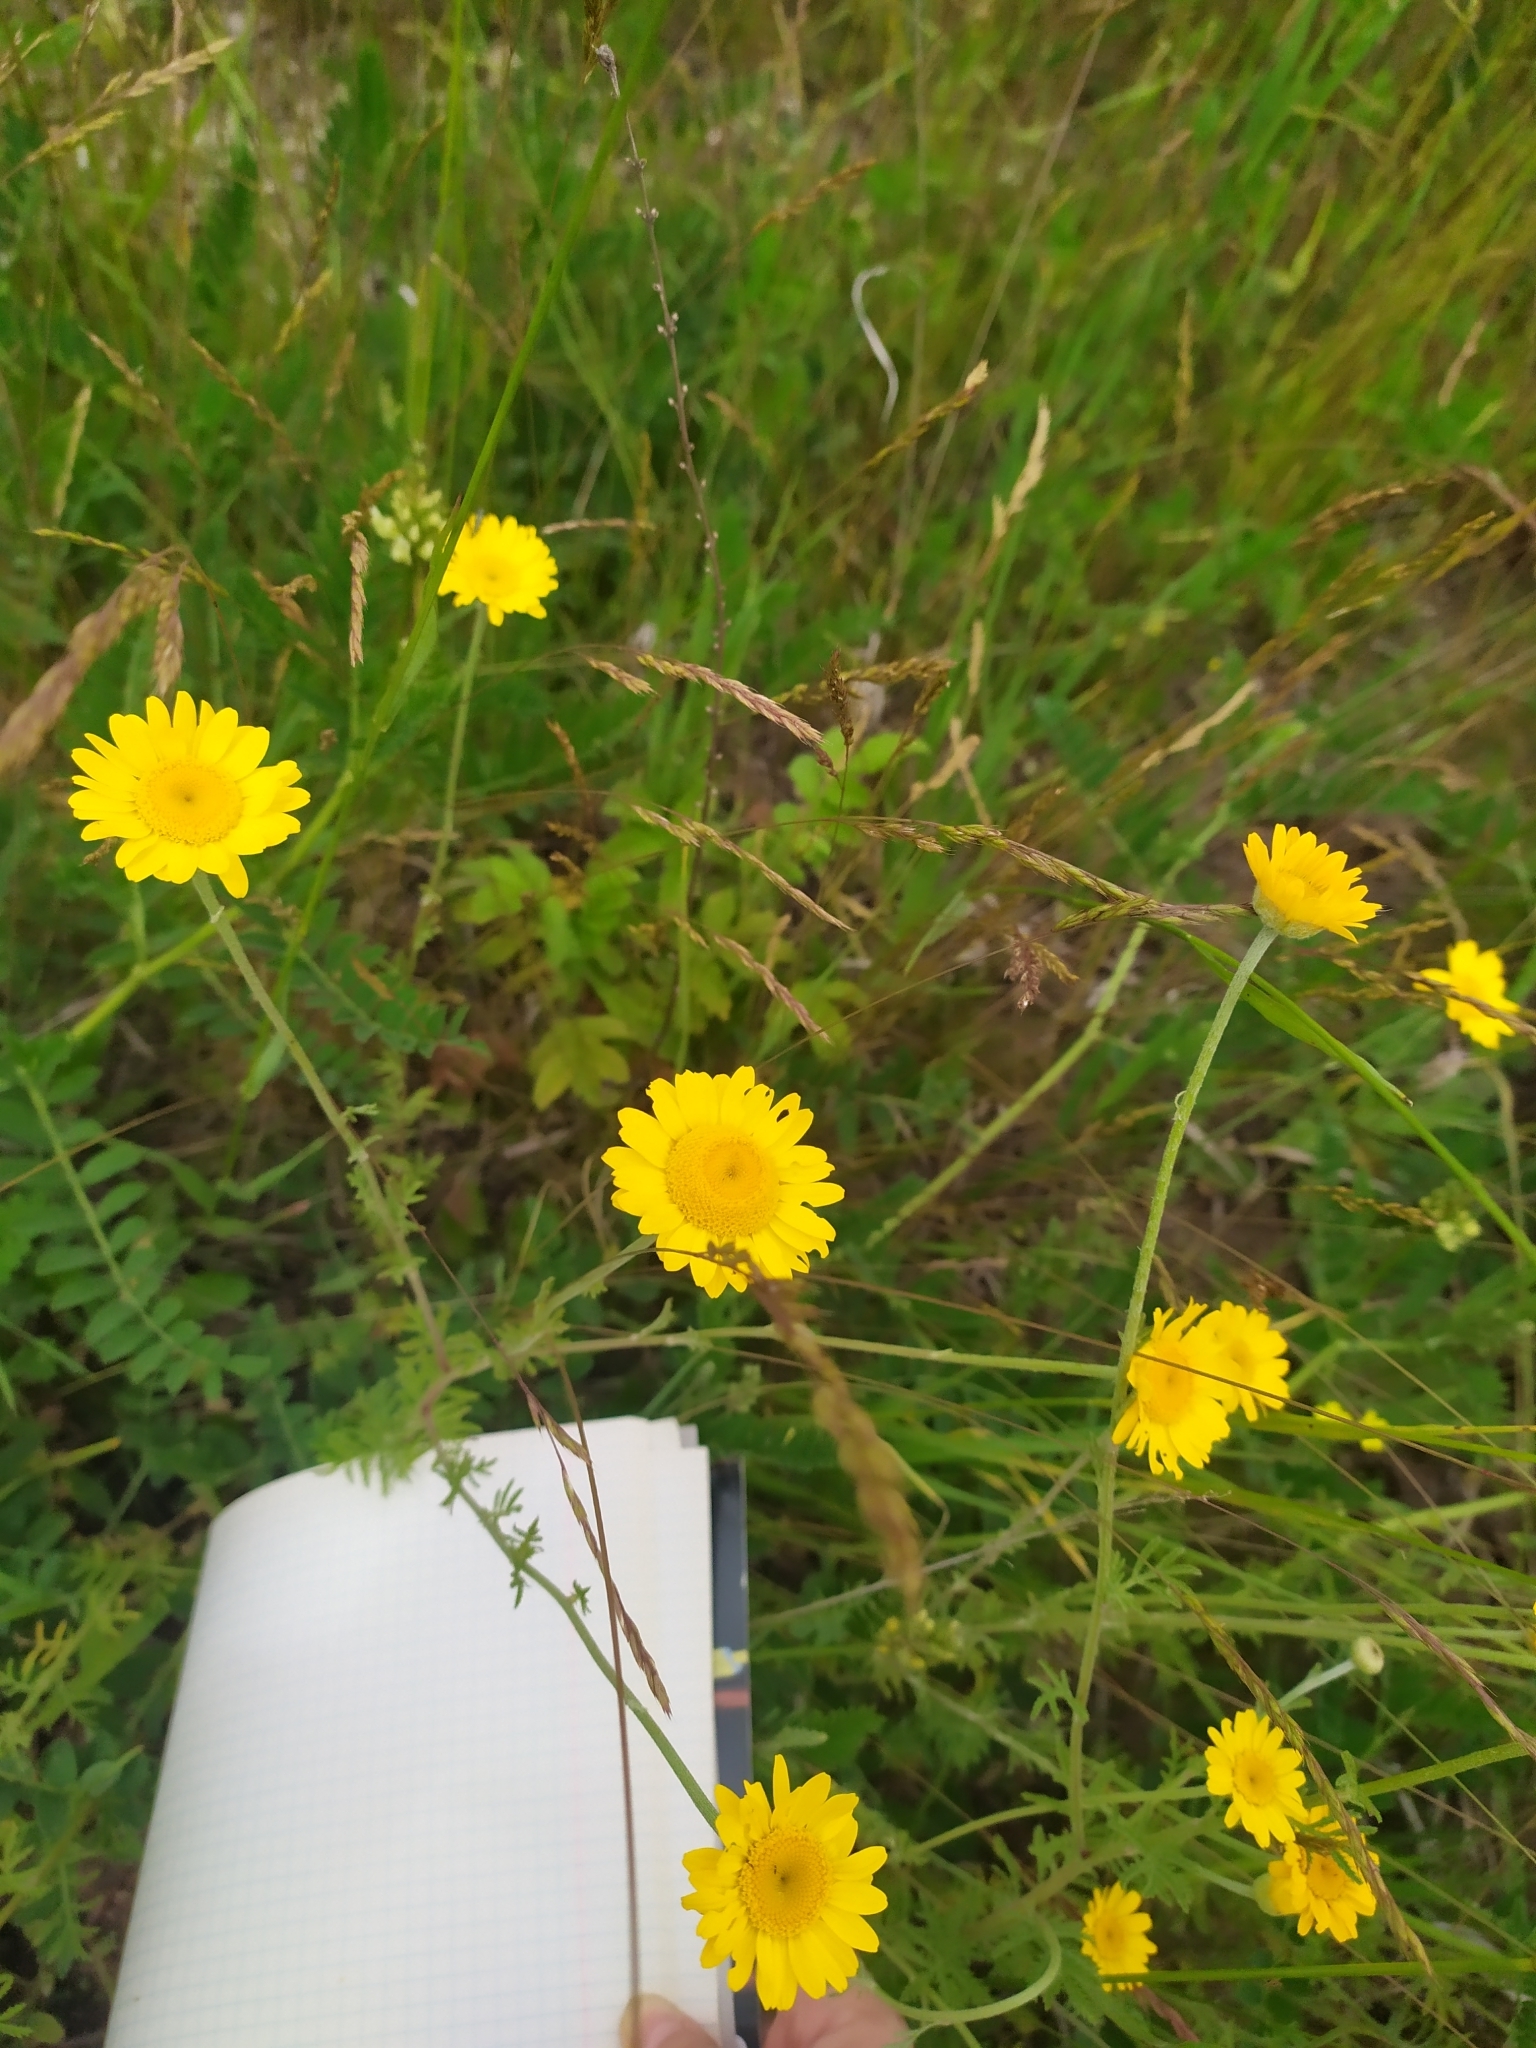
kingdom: Plantae
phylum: Tracheophyta
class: Magnoliopsida
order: Asterales
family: Asteraceae
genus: Cota
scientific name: Cota tinctoria
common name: Golden chamomile
